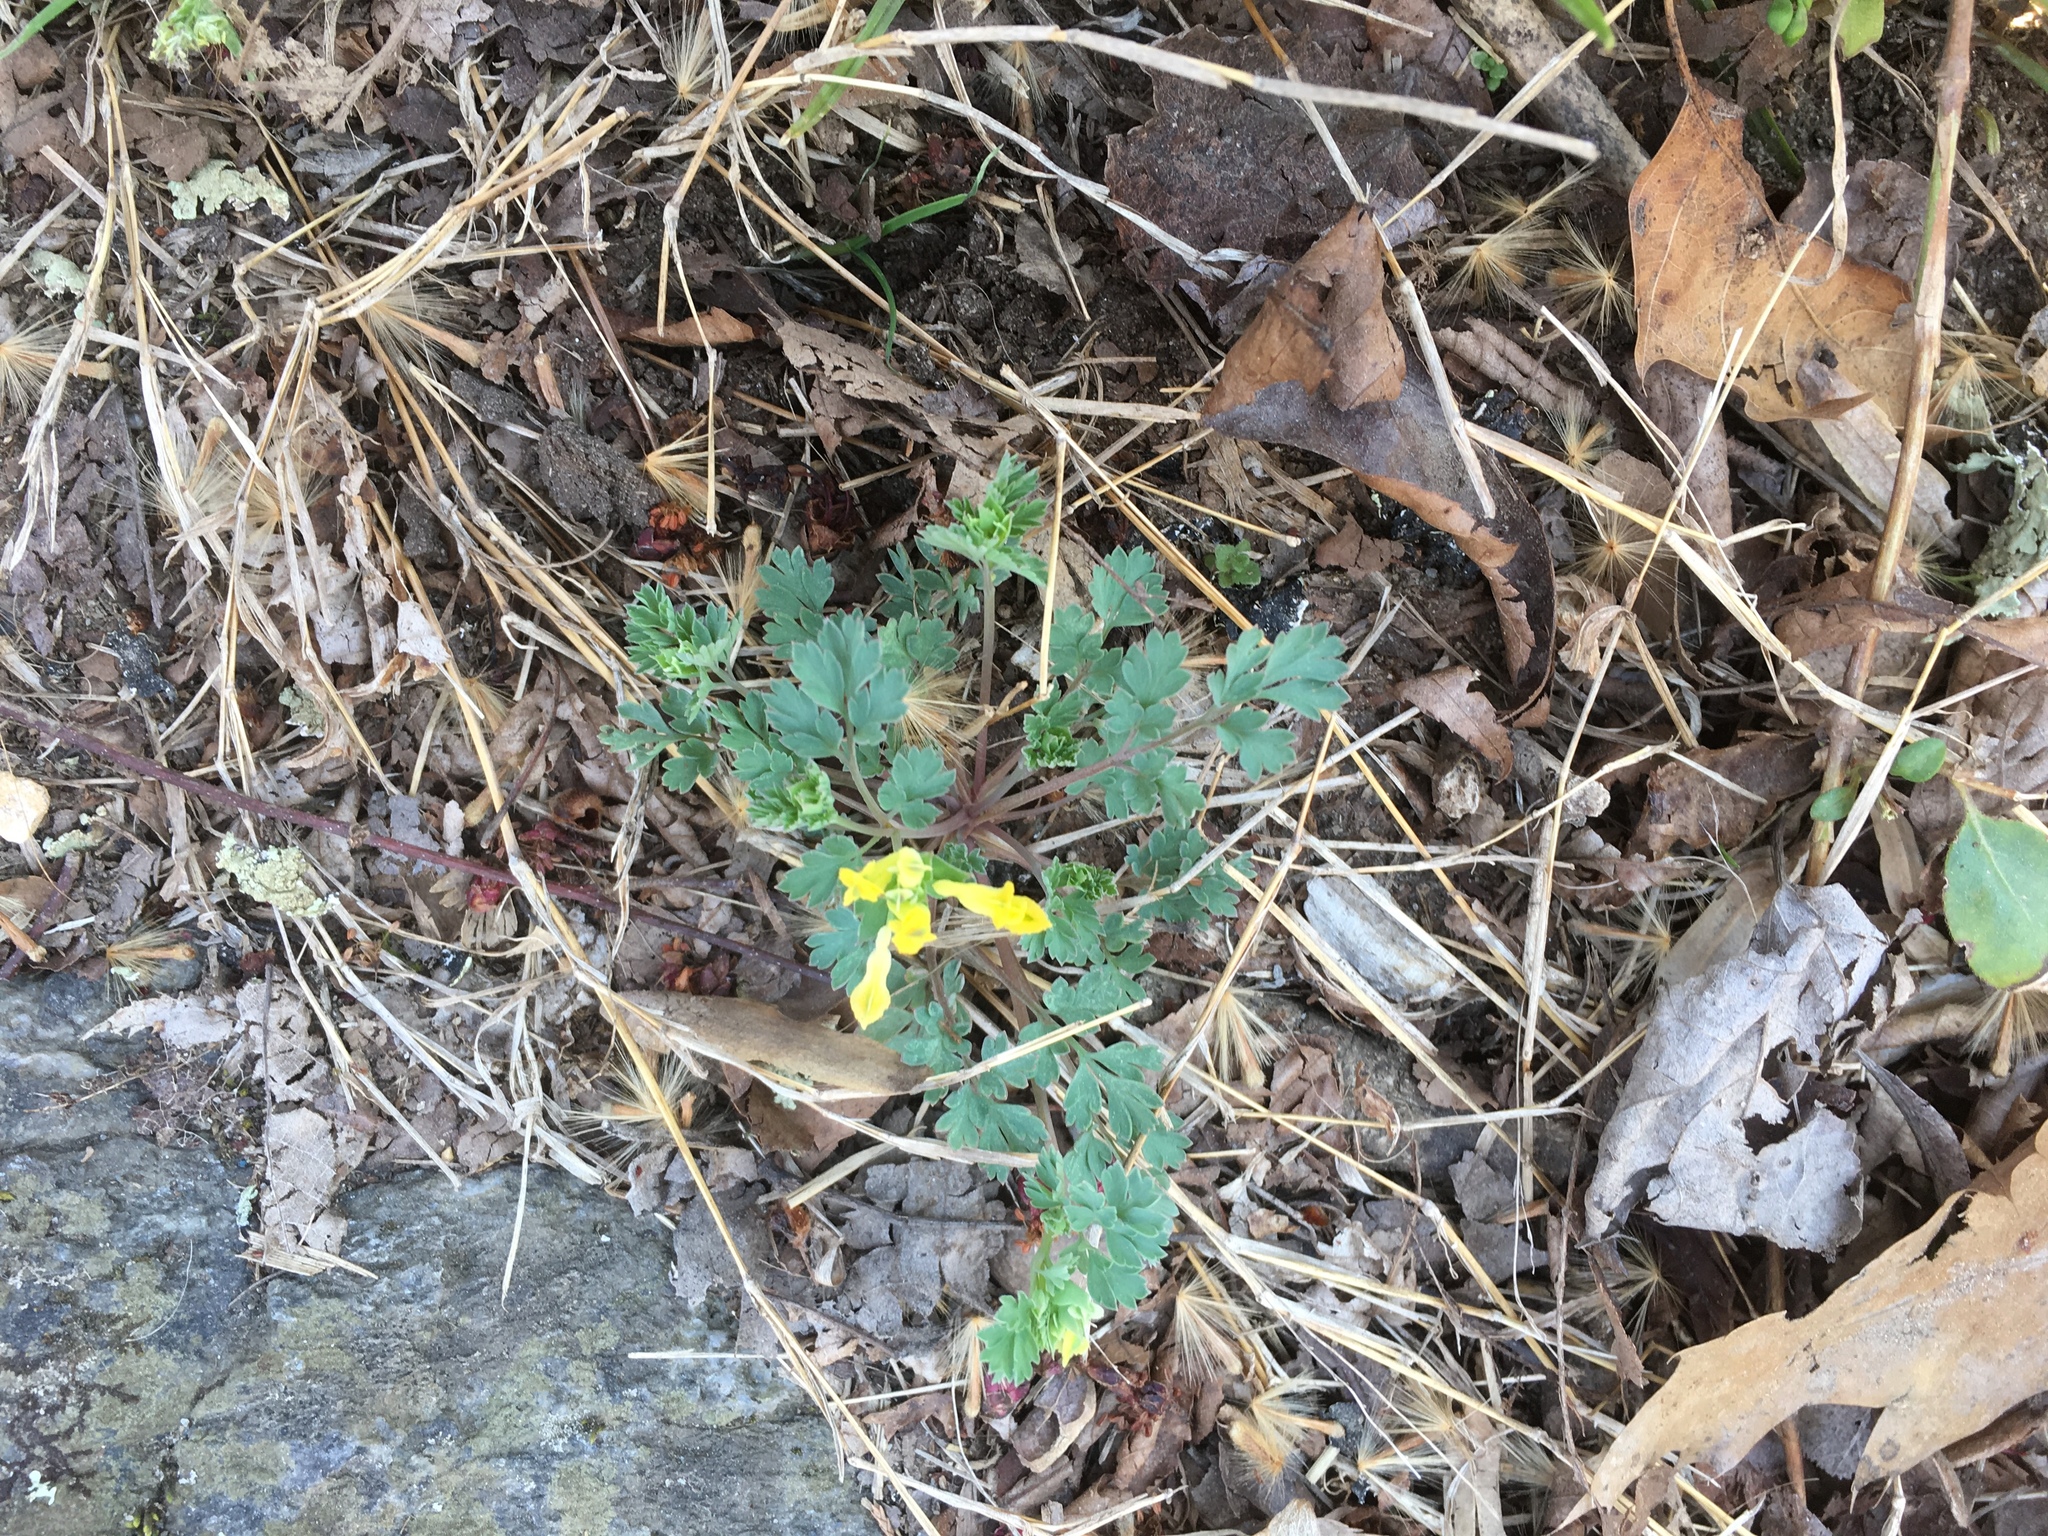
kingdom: Plantae
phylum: Tracheophyta
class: Magnoliopsida
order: Ranunculales
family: Papaveraceae
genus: Corydalis
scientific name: Corydalis flavula
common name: Yellow corydalis
